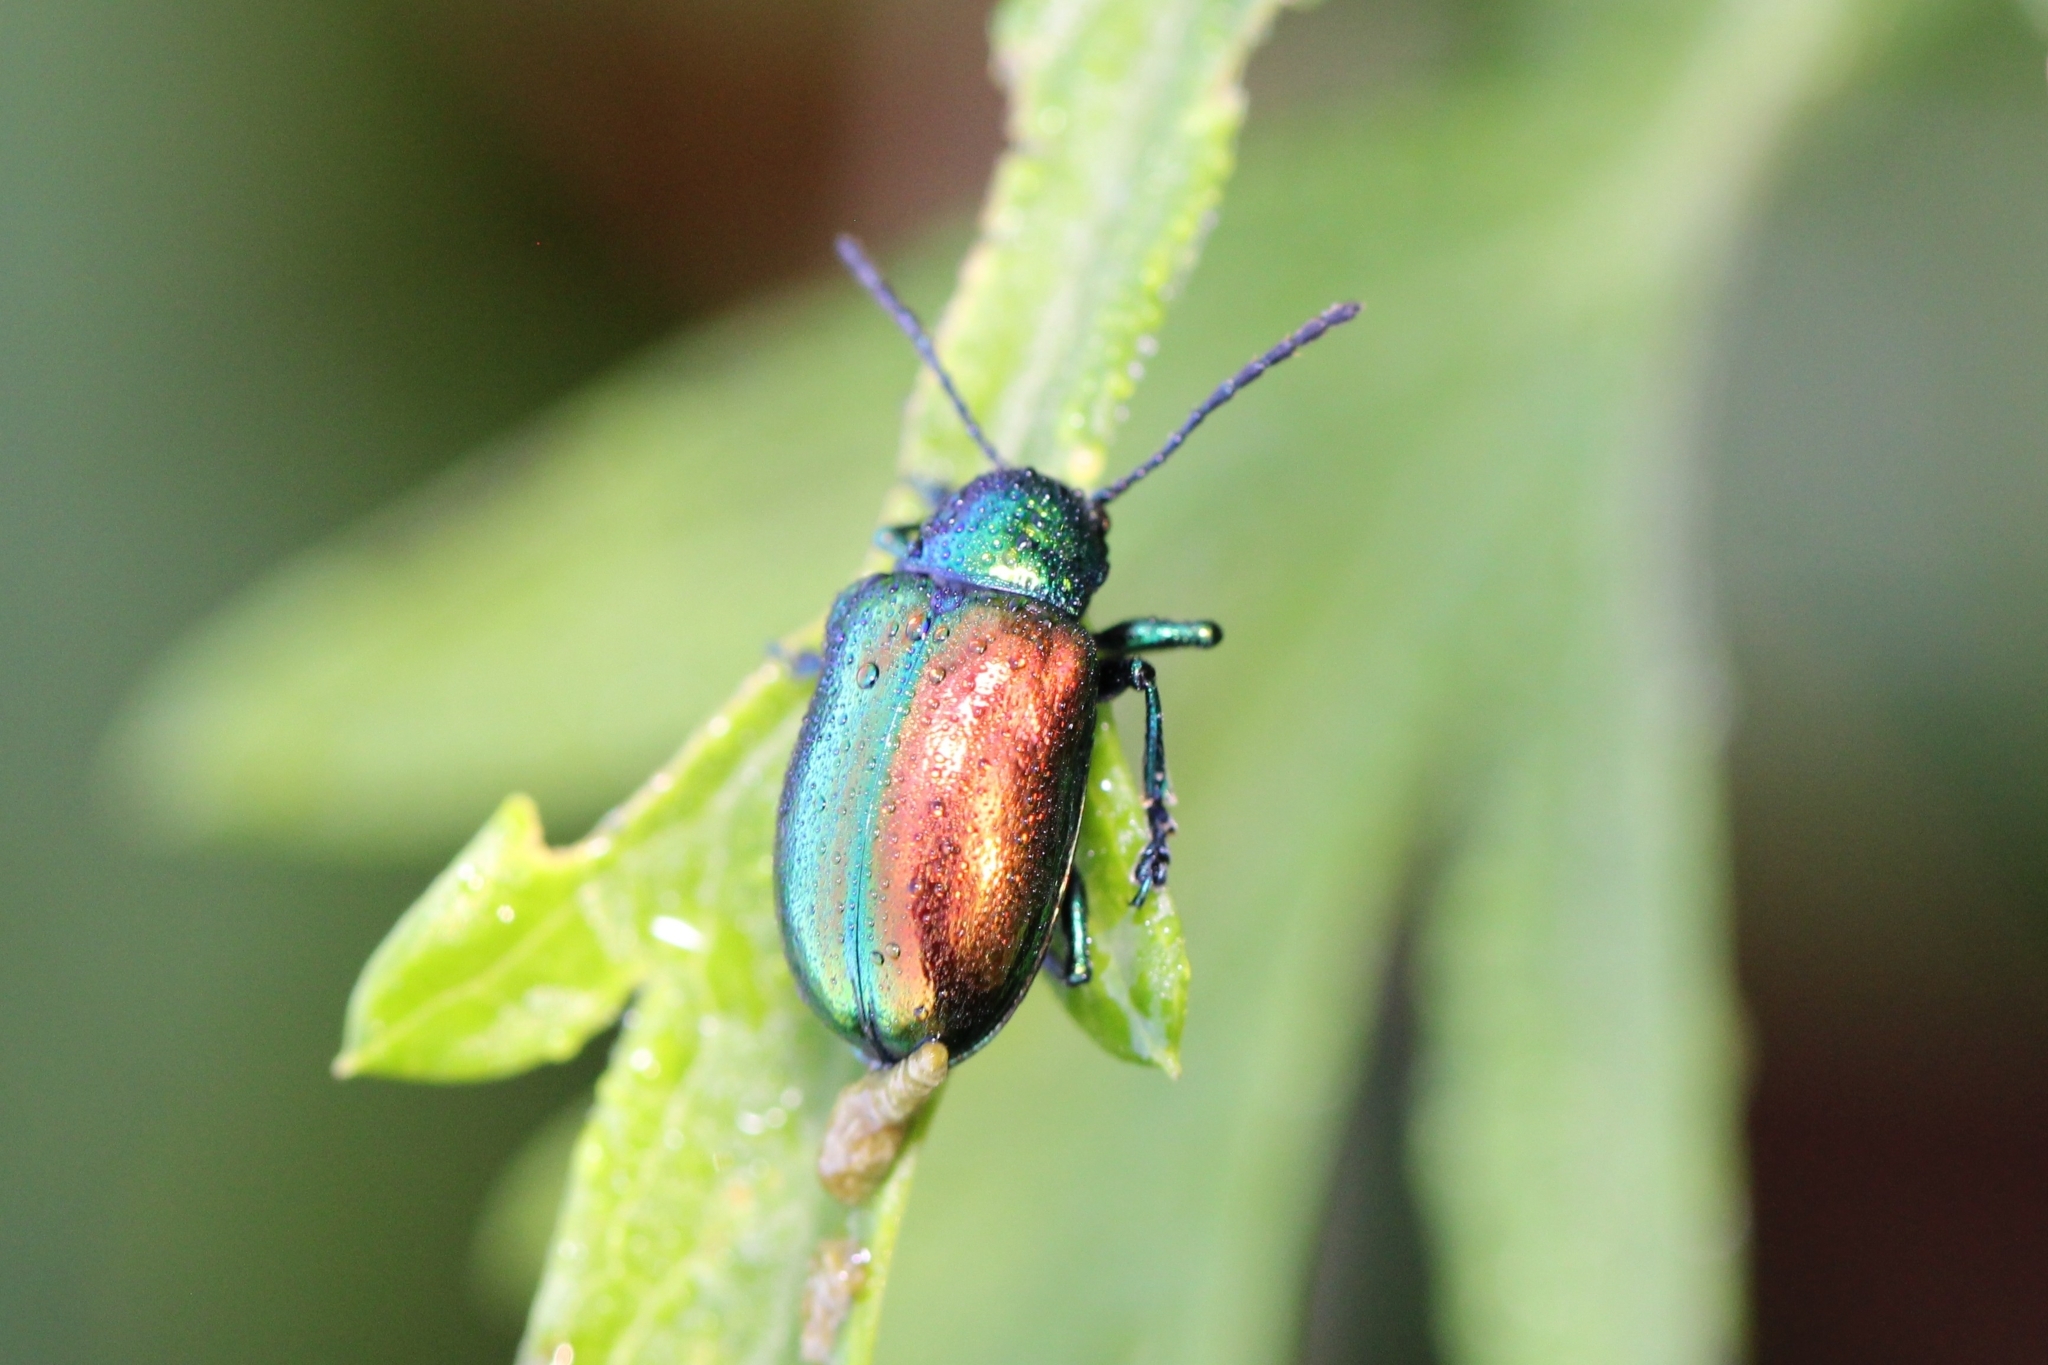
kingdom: Animalia
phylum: Arthropoda
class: Insecta
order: Coleoptera
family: Chrysomelidae
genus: Chrysochus
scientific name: Chrysochus auratus
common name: Dogbane leaf beetle
